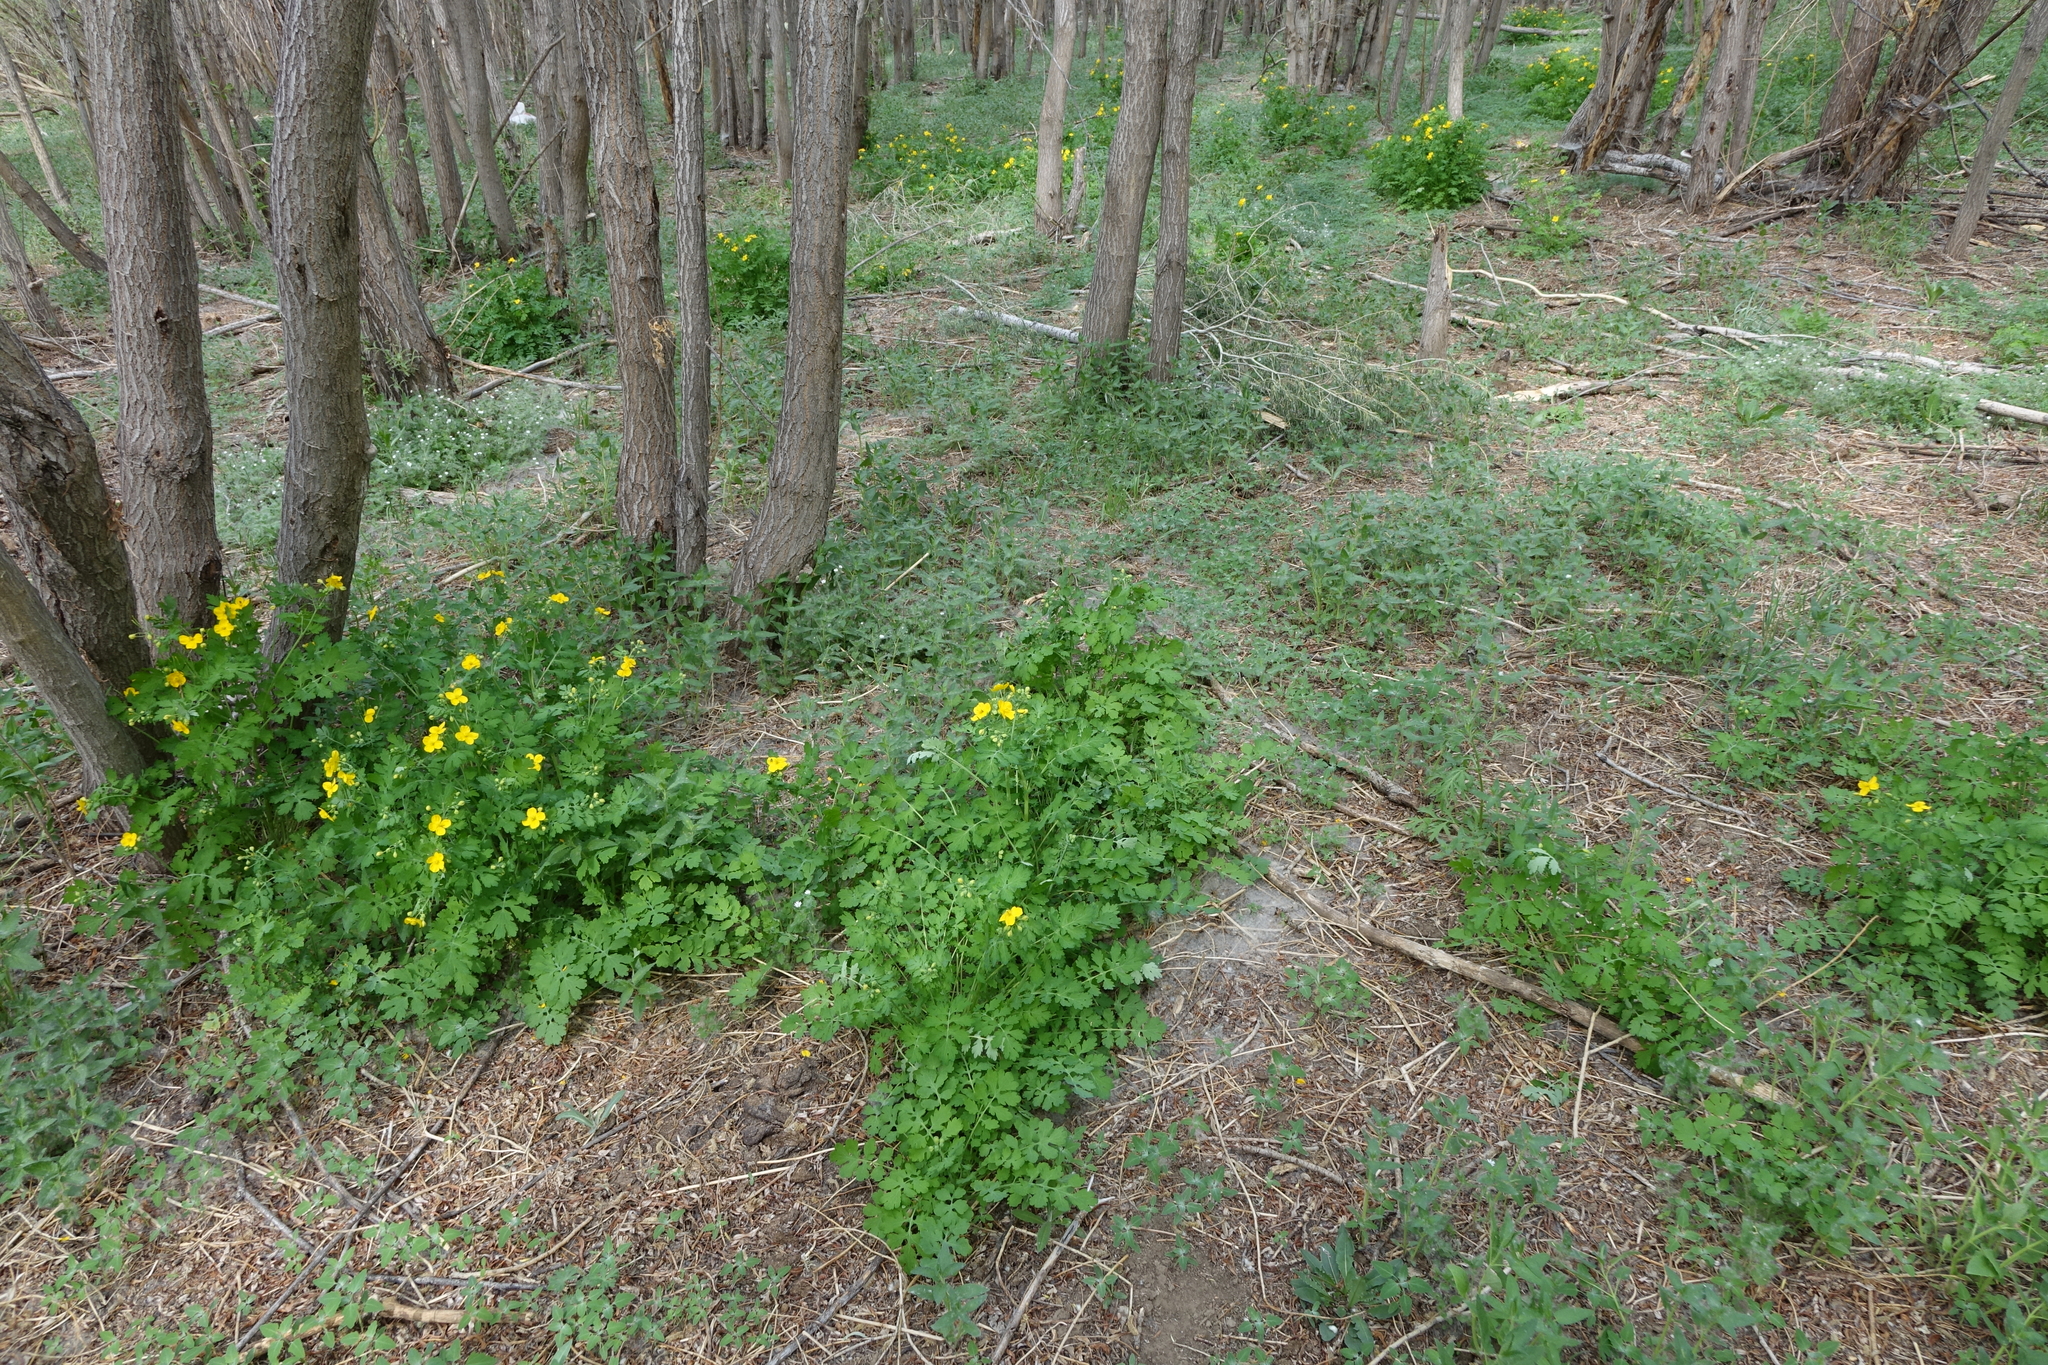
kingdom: Plantae
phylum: Tracheophyta
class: Magnoliopsida
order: Ranunculales
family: Papaveraceae
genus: Chelidonium
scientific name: Chelidonium majus
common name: Greater celandine
